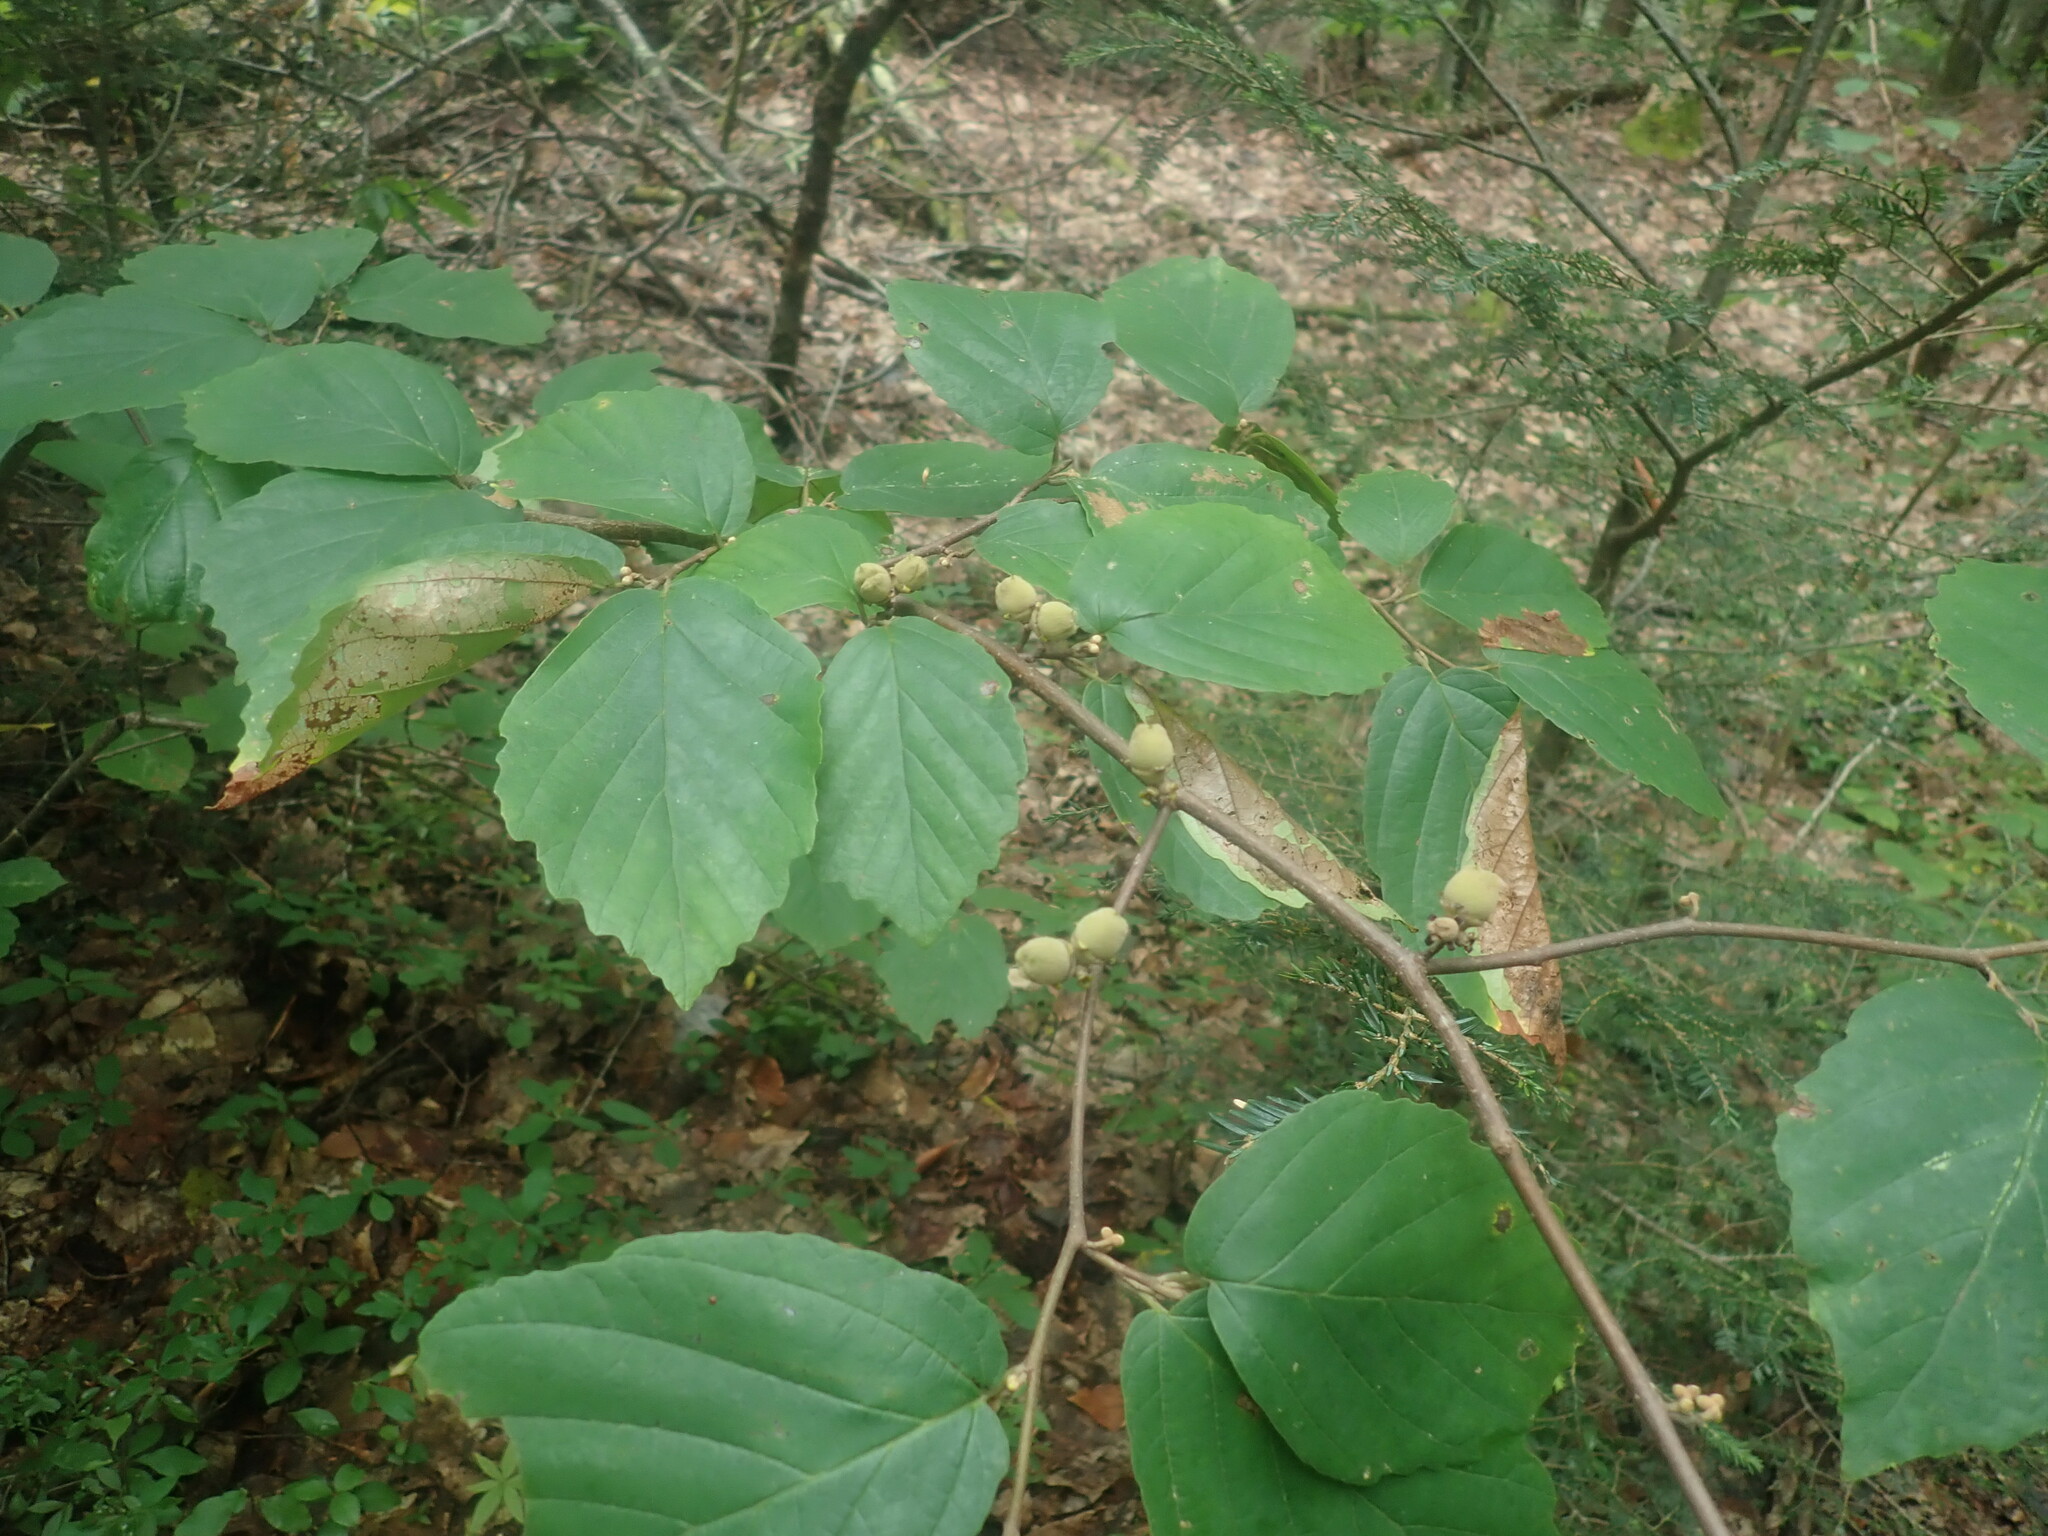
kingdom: Plantae
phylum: Tracheophyta
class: Magnoliopsida
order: Saxifragales
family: Hamamelidaceae
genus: Hamamelis
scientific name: Hamamelis virginiana
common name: Witch-hazel
